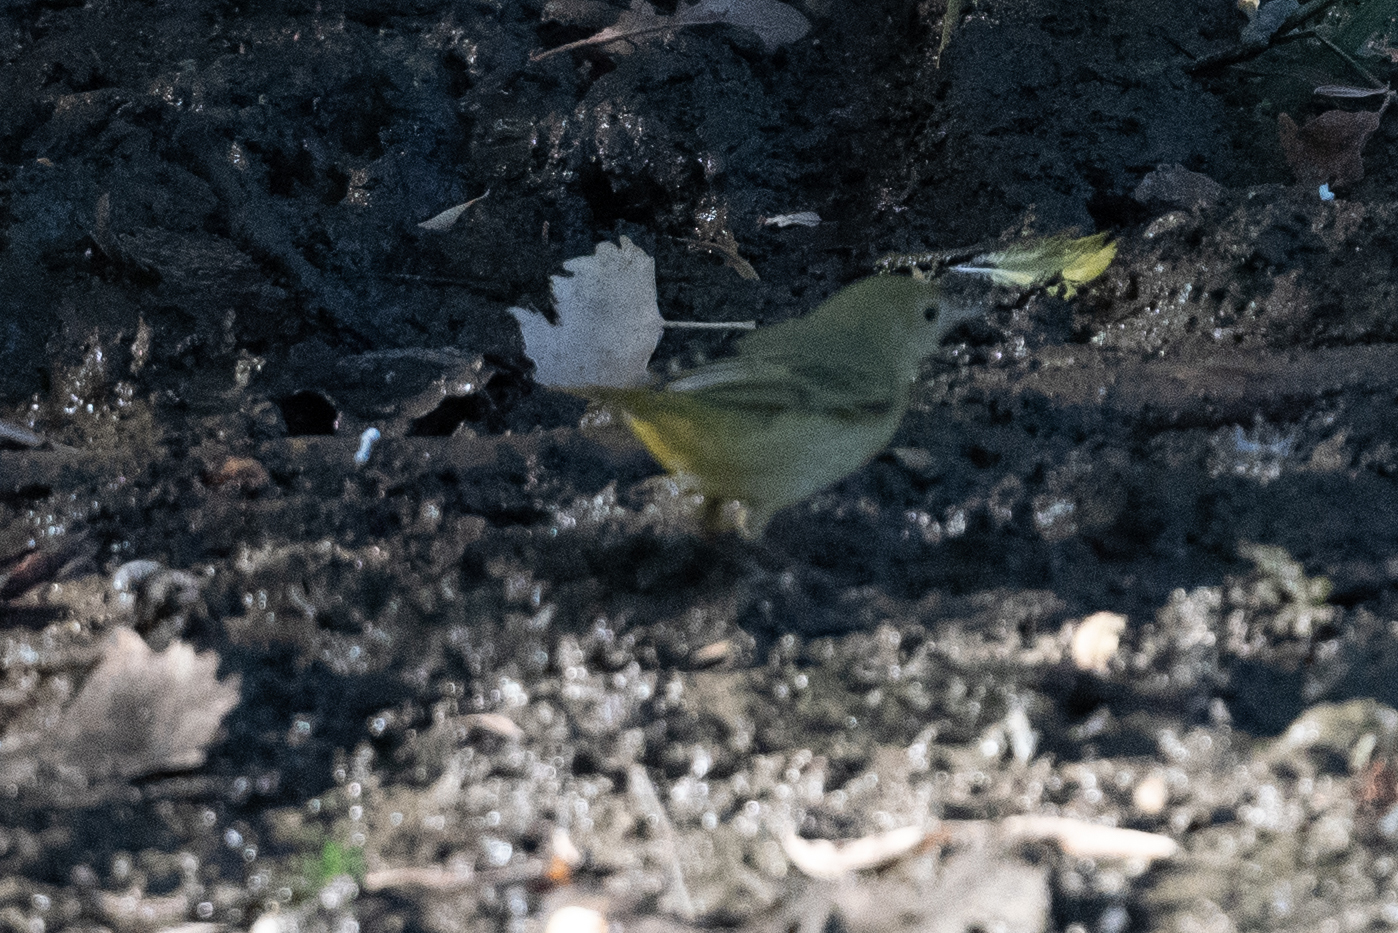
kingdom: Animalia
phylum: Chordata
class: Aves
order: Passeriformes
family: Parulidae
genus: Setophaga
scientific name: Setophaga petechia
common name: Yellow warbler
